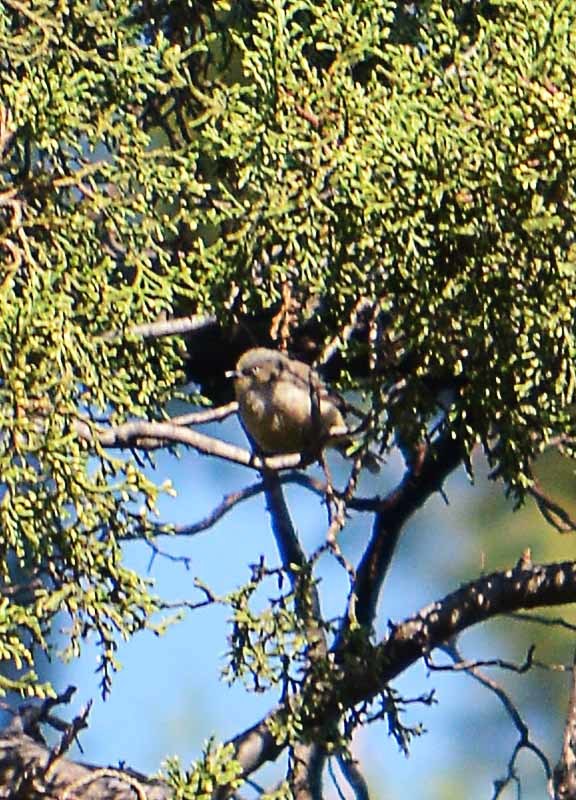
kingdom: Animalia
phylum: Chordata
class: Aves
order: Passeriformes
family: Aegithalidae
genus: Psaltriparus
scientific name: Psaltriparus minimus
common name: American bushtit
